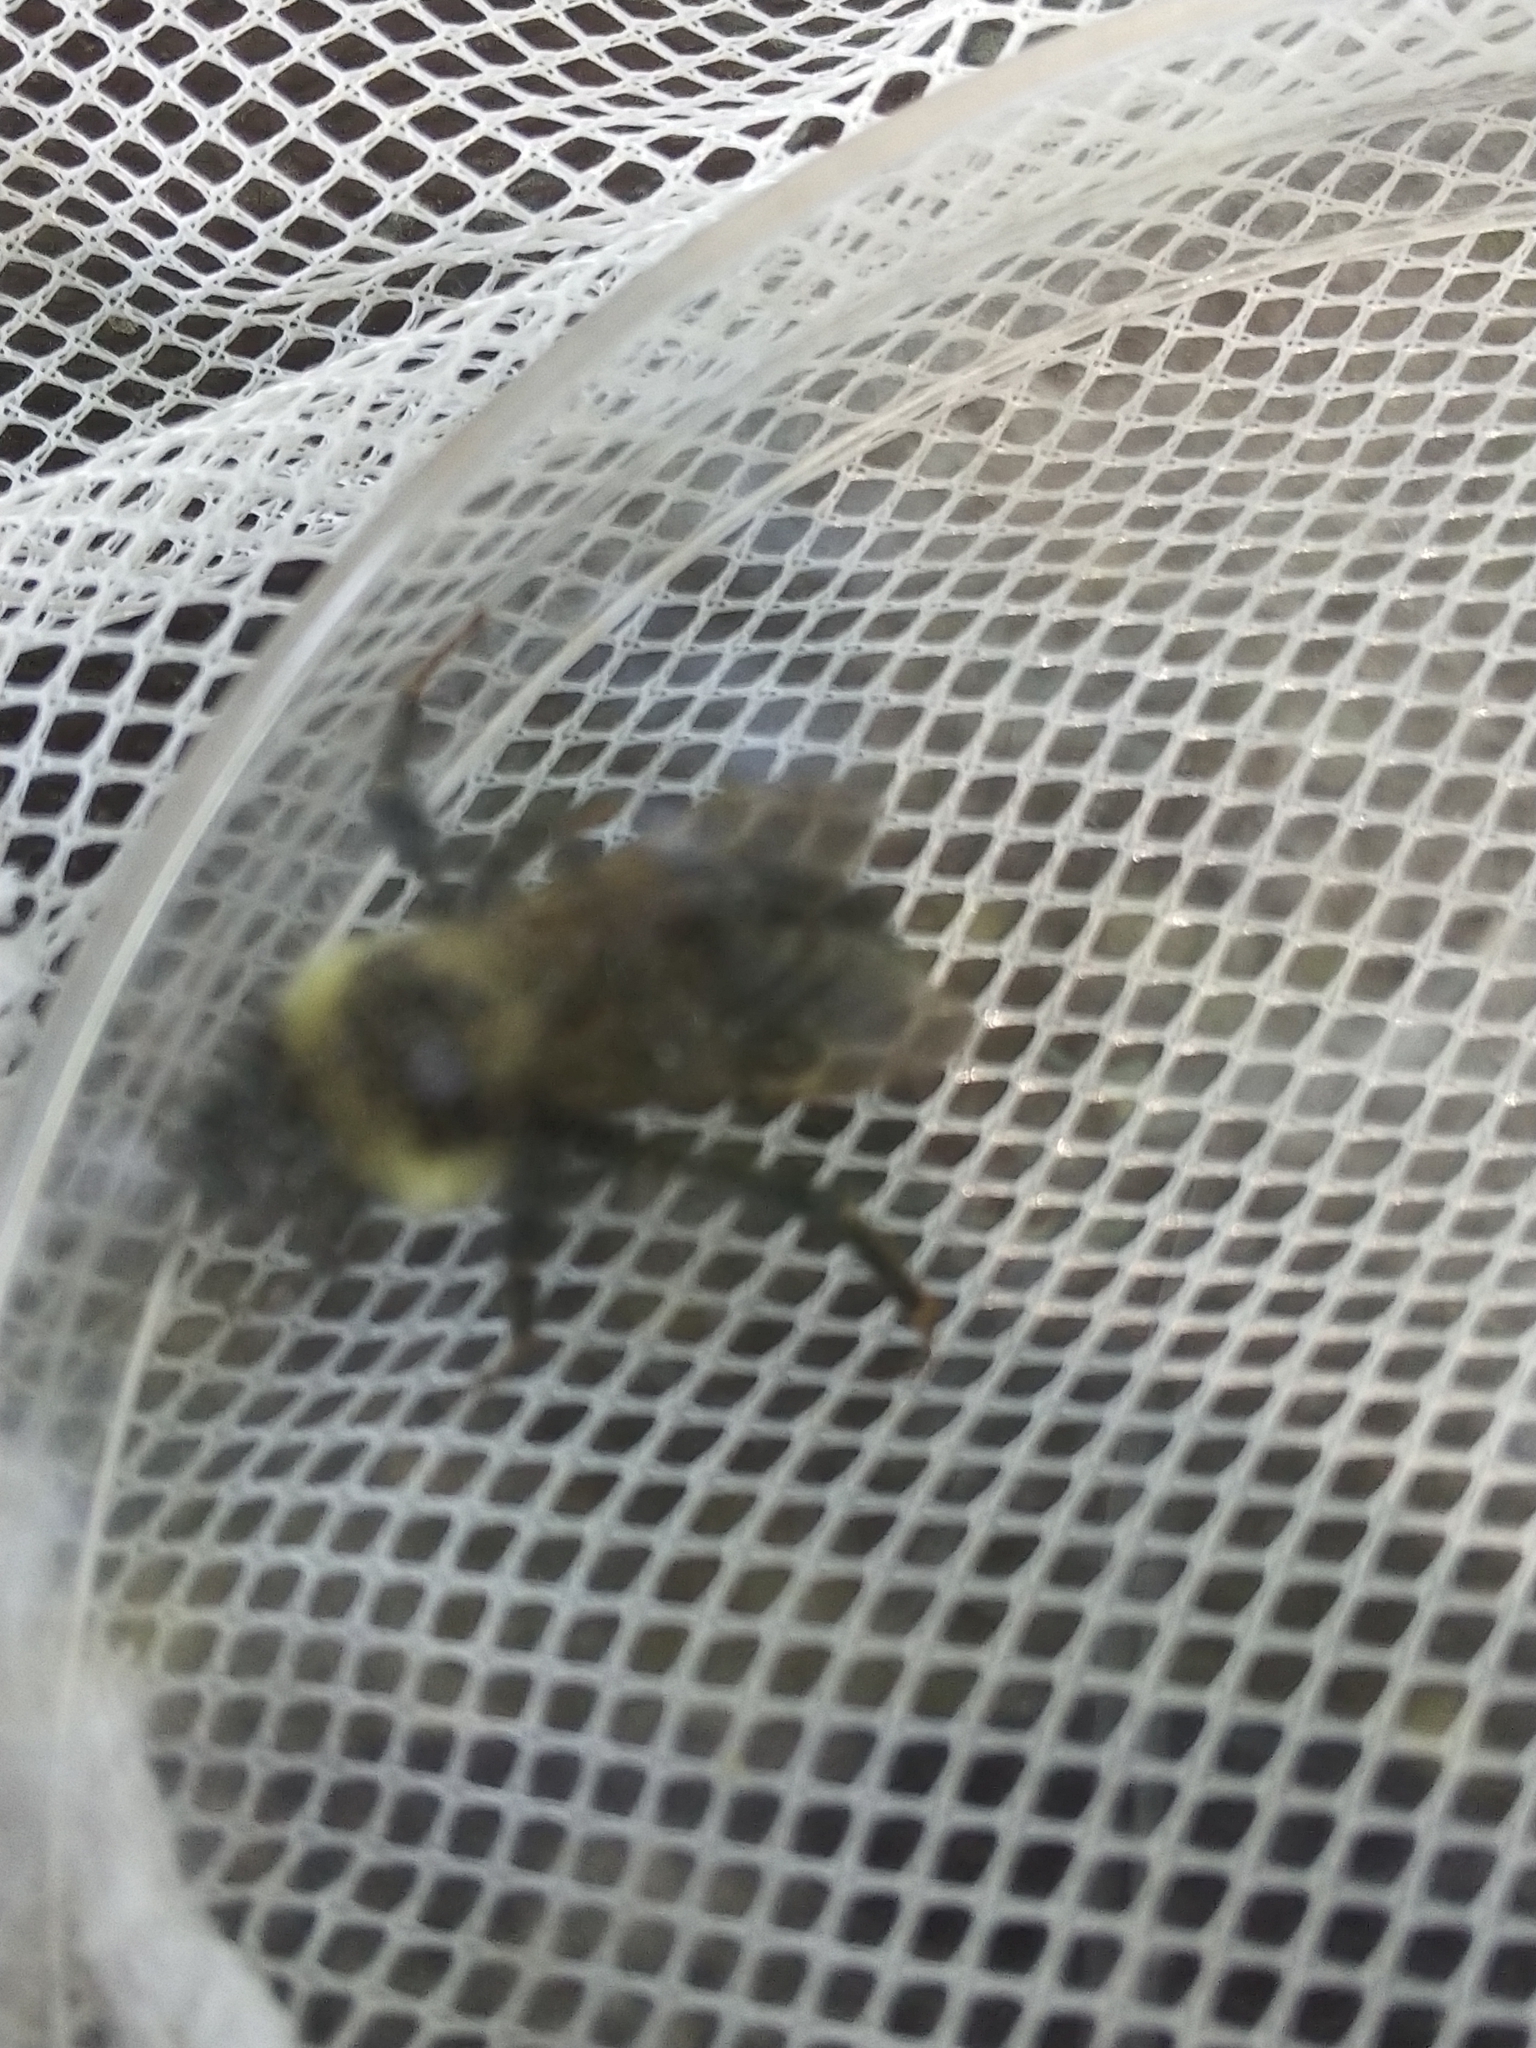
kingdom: Animalia
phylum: Arthropoda
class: Insecta
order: Hymenoptera
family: Apidae
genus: Bombus
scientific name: Bombus citrinus
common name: Lemon cuckoo bumble bee
